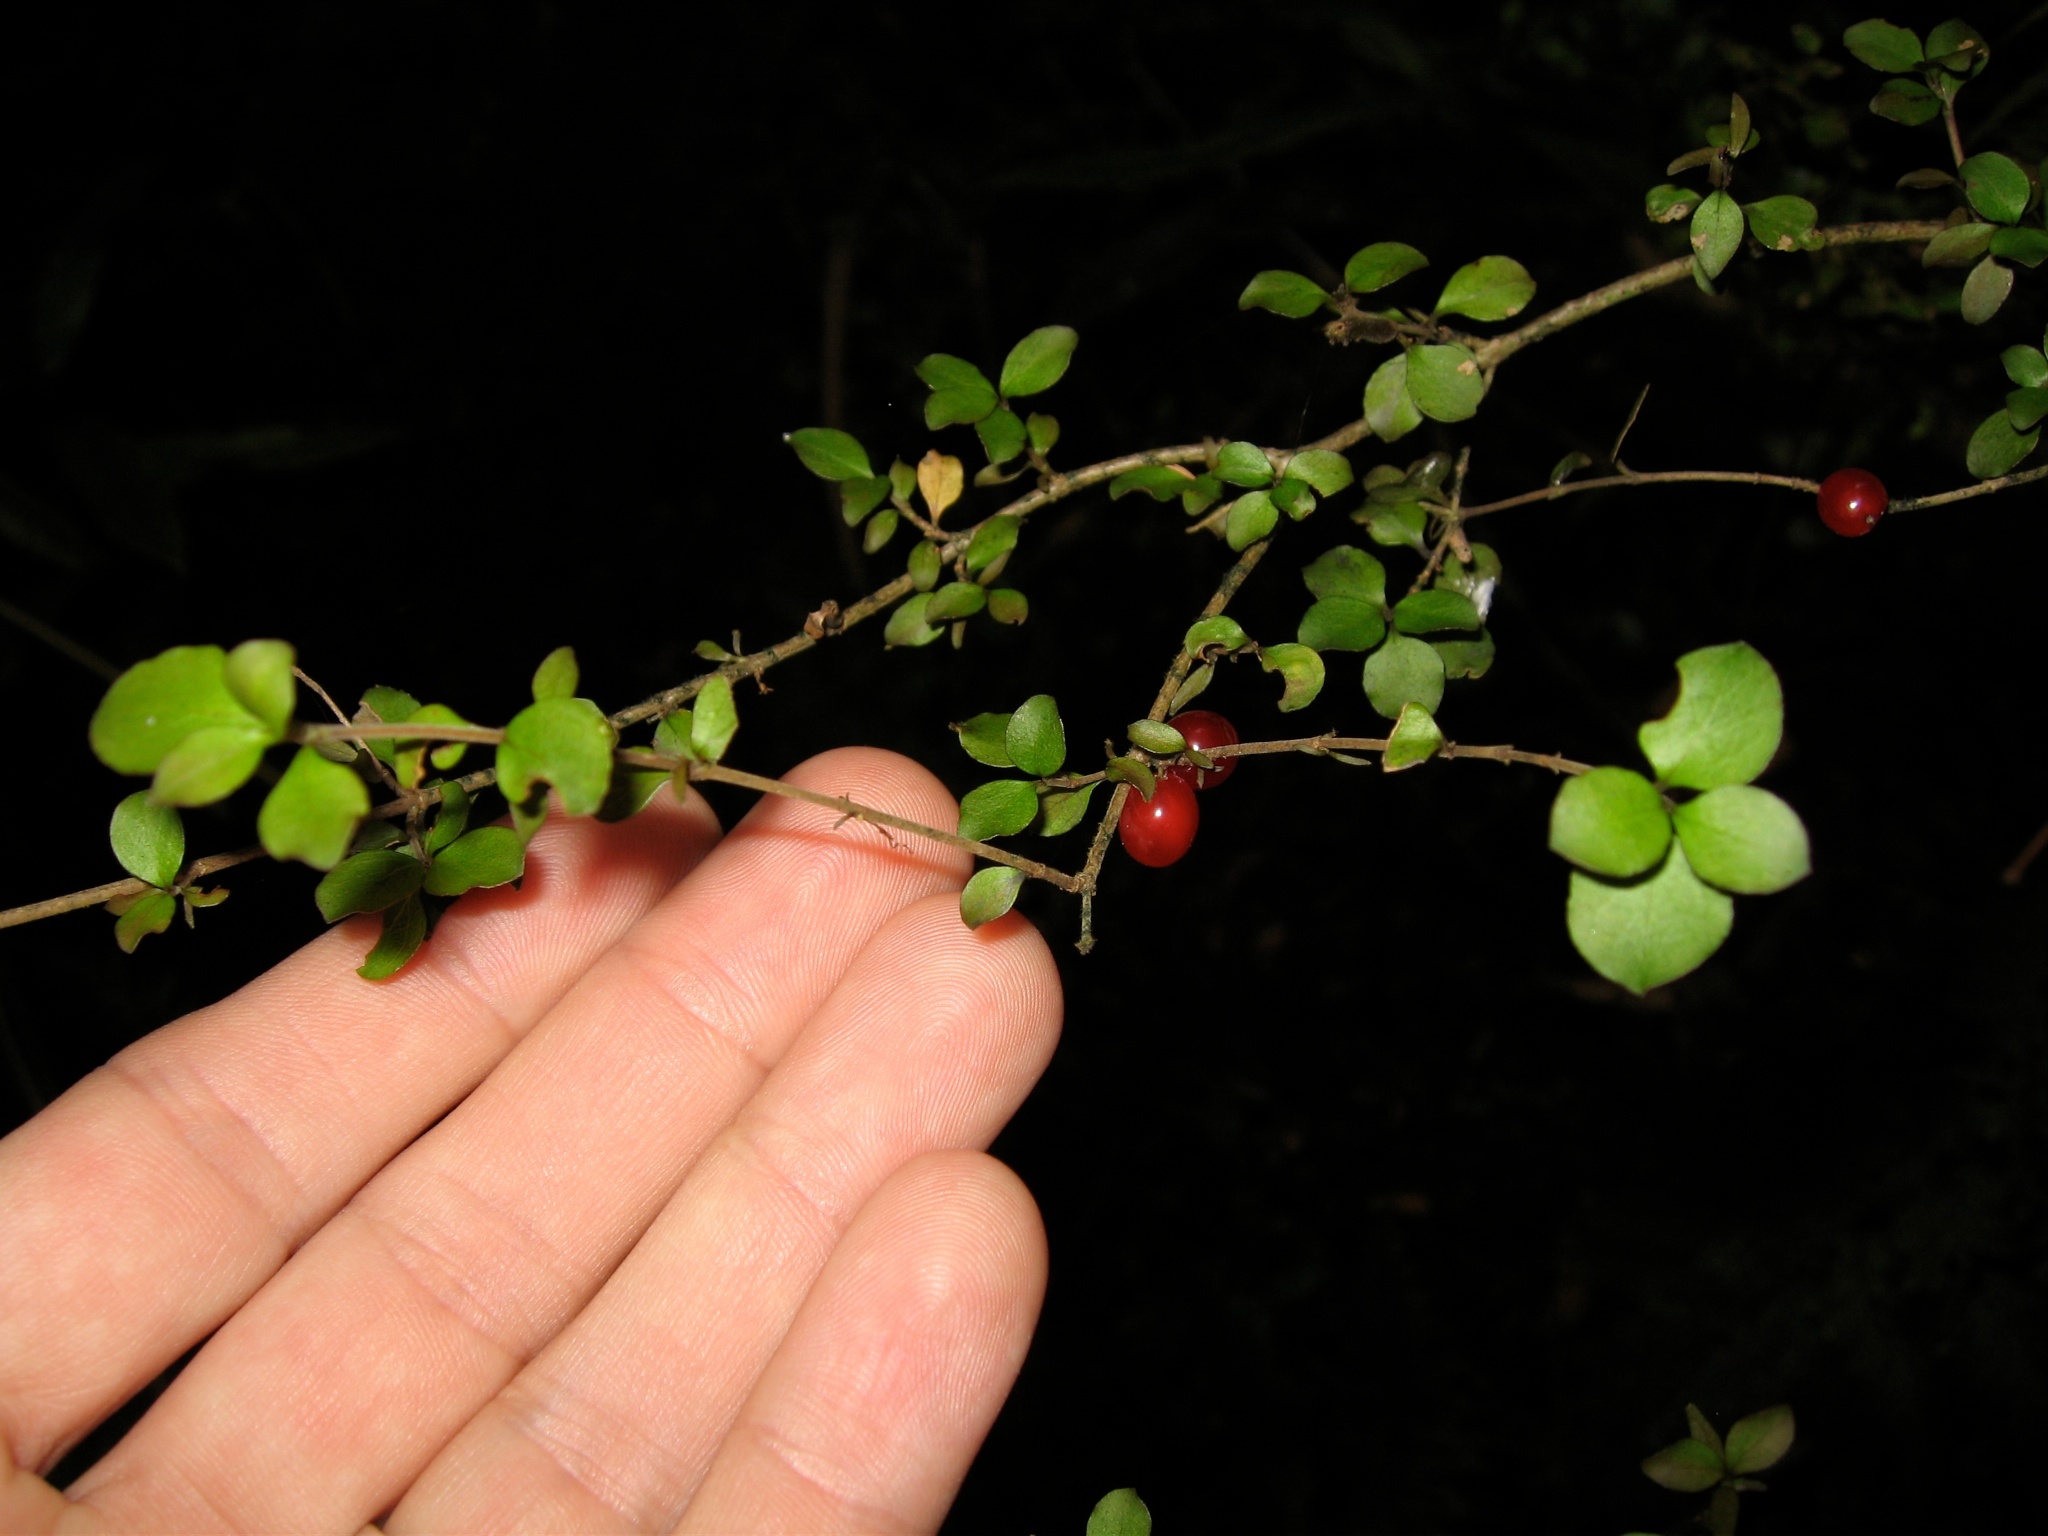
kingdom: Plantae
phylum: Tracheophyta
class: Magnoliopsida
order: Gentianales
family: Rubiaceae
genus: Coprosma
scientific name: Coprosma rhamnoides
